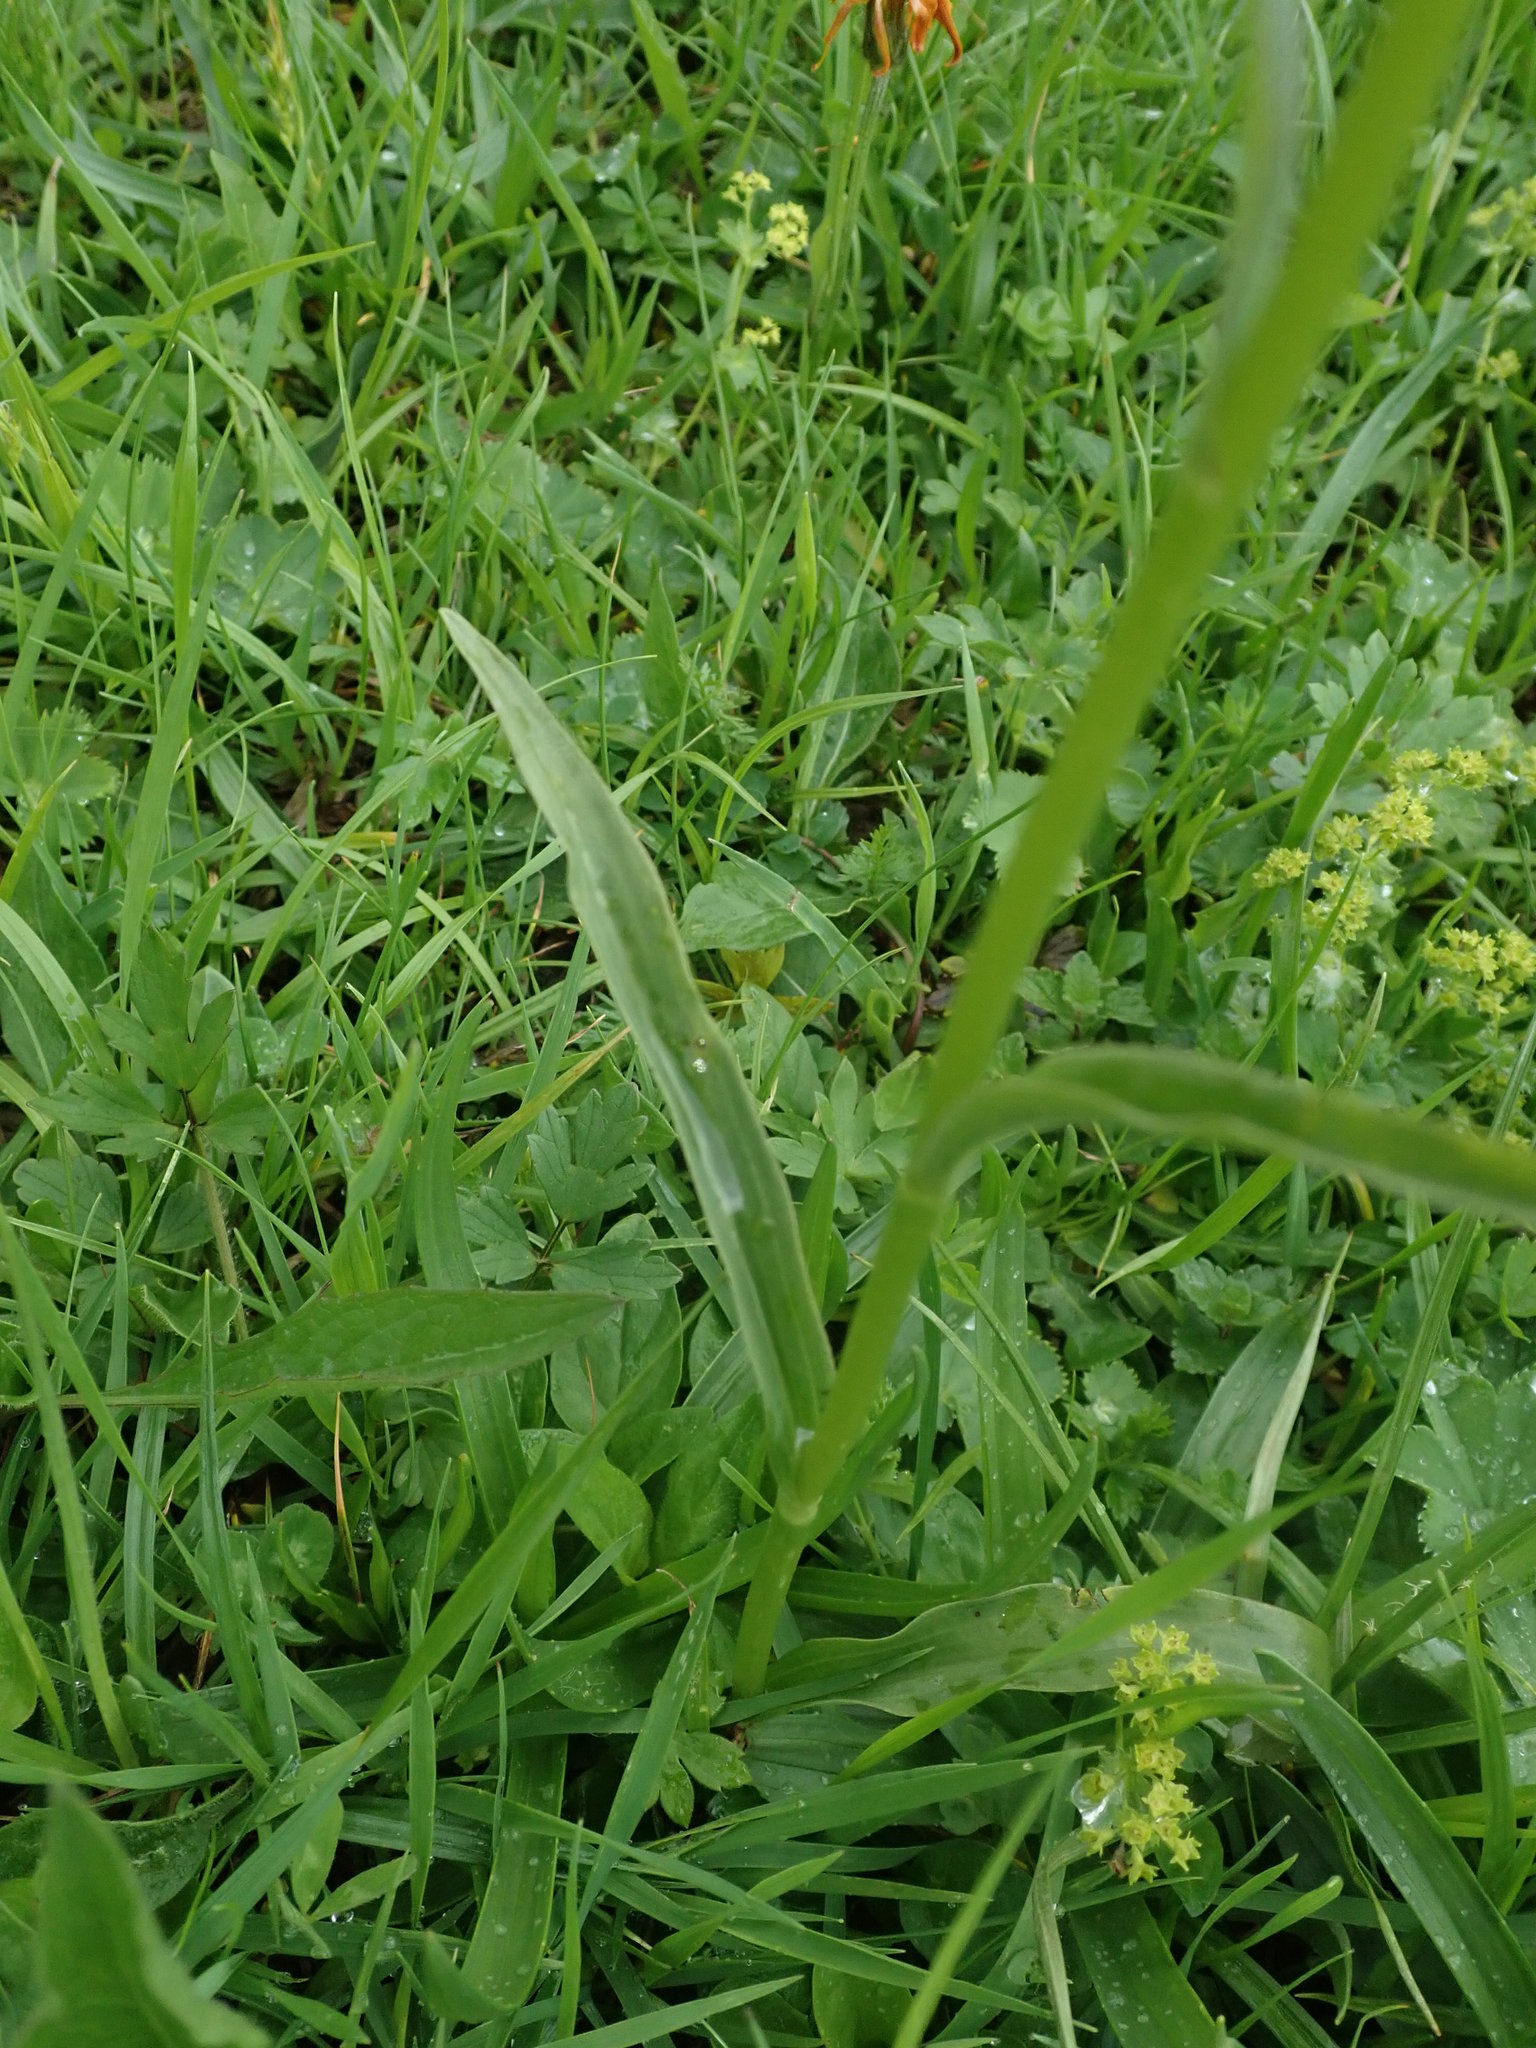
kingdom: Plantae
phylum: Tracheophyta
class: Liliopsida
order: Asparagales
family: Orchidaceae
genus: Dactylorhiza
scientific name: Dactylorhiza maculata
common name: Heath spotted-orchid
